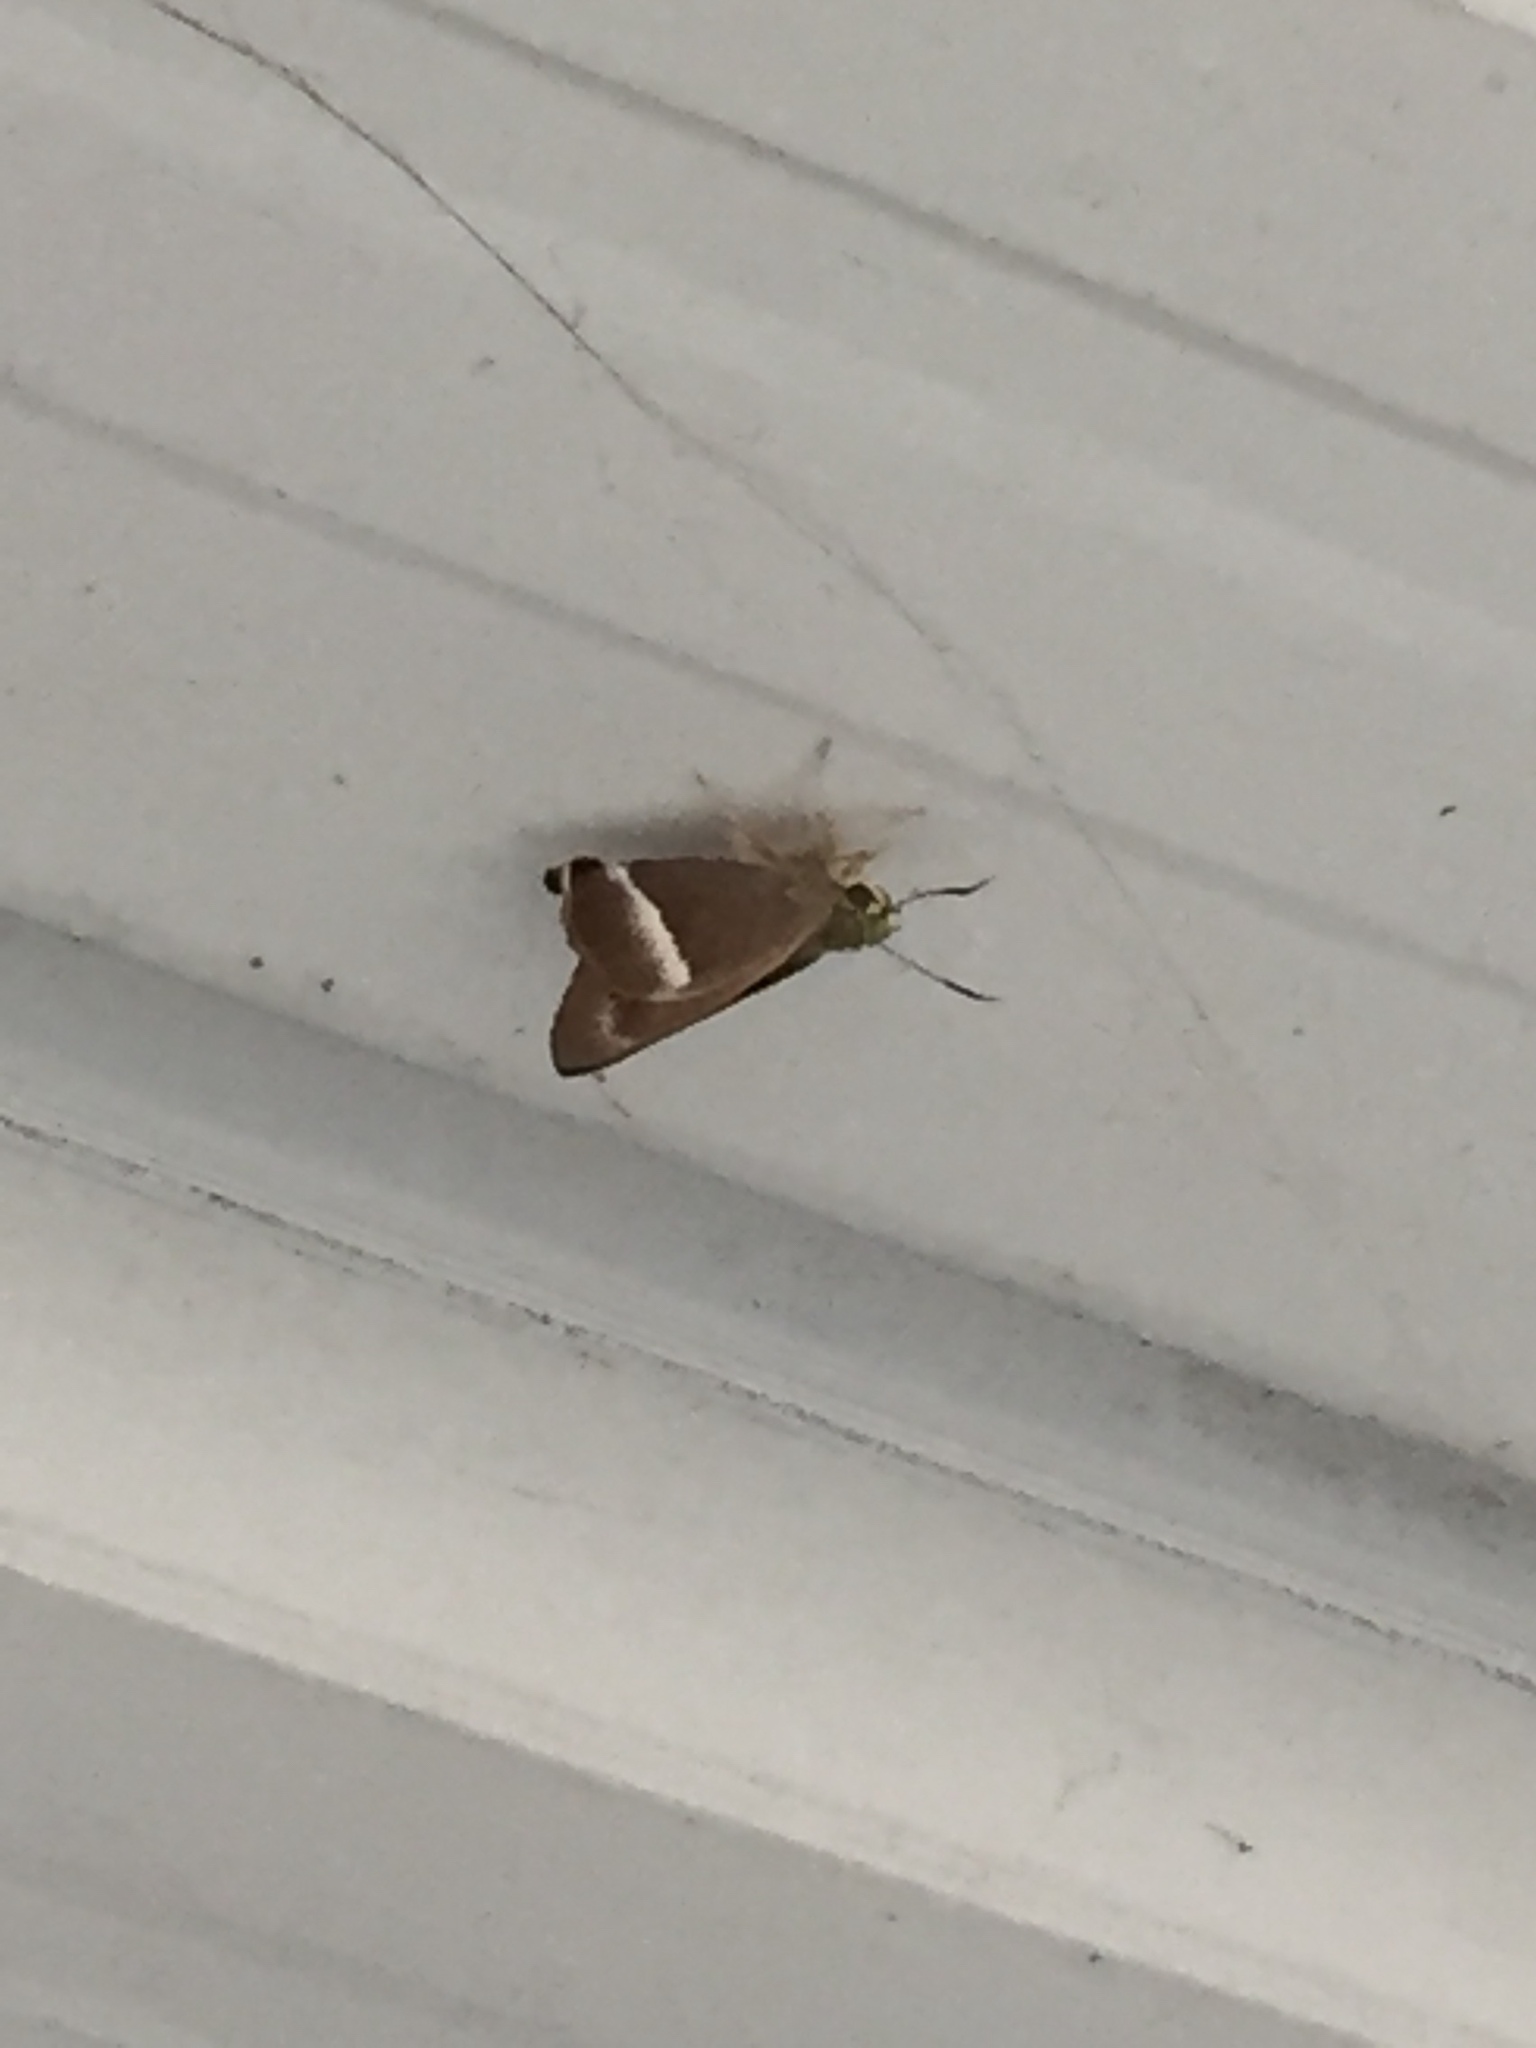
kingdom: Animalia
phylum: Arthropoda
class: Insecta
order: Lepidoptera
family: Hesperiidae
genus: Hasora
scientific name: Hasora chromus
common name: Common banded awl
